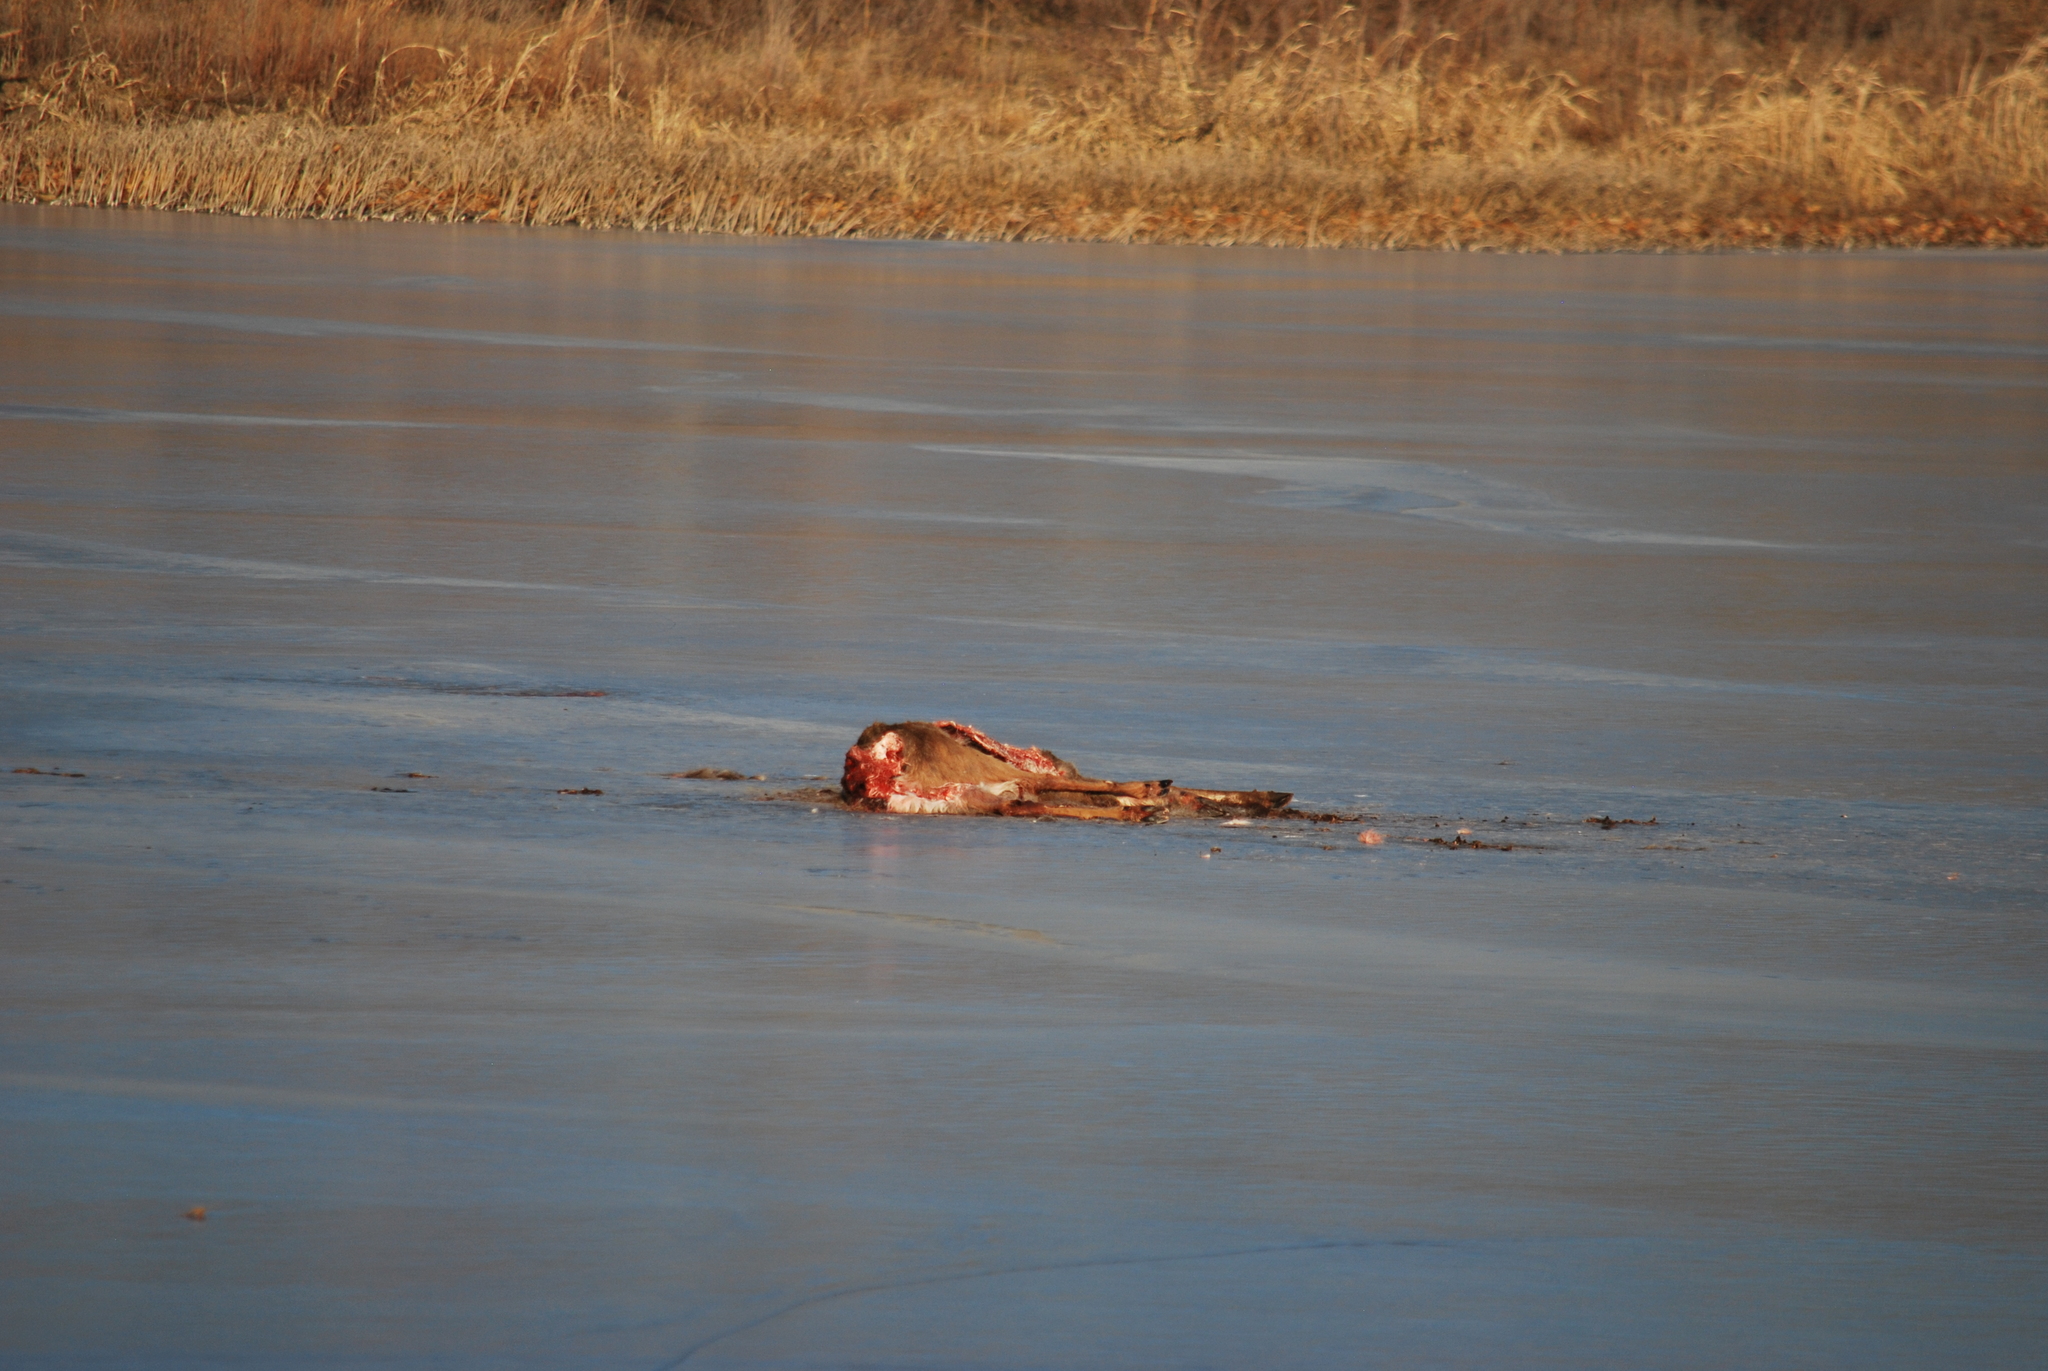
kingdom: Animalia
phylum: Chordata
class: Mammalia
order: Artiodactyla
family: Cervidae
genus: Odocoileus
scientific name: Odocoileus virginianus
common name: White-tailed deer
